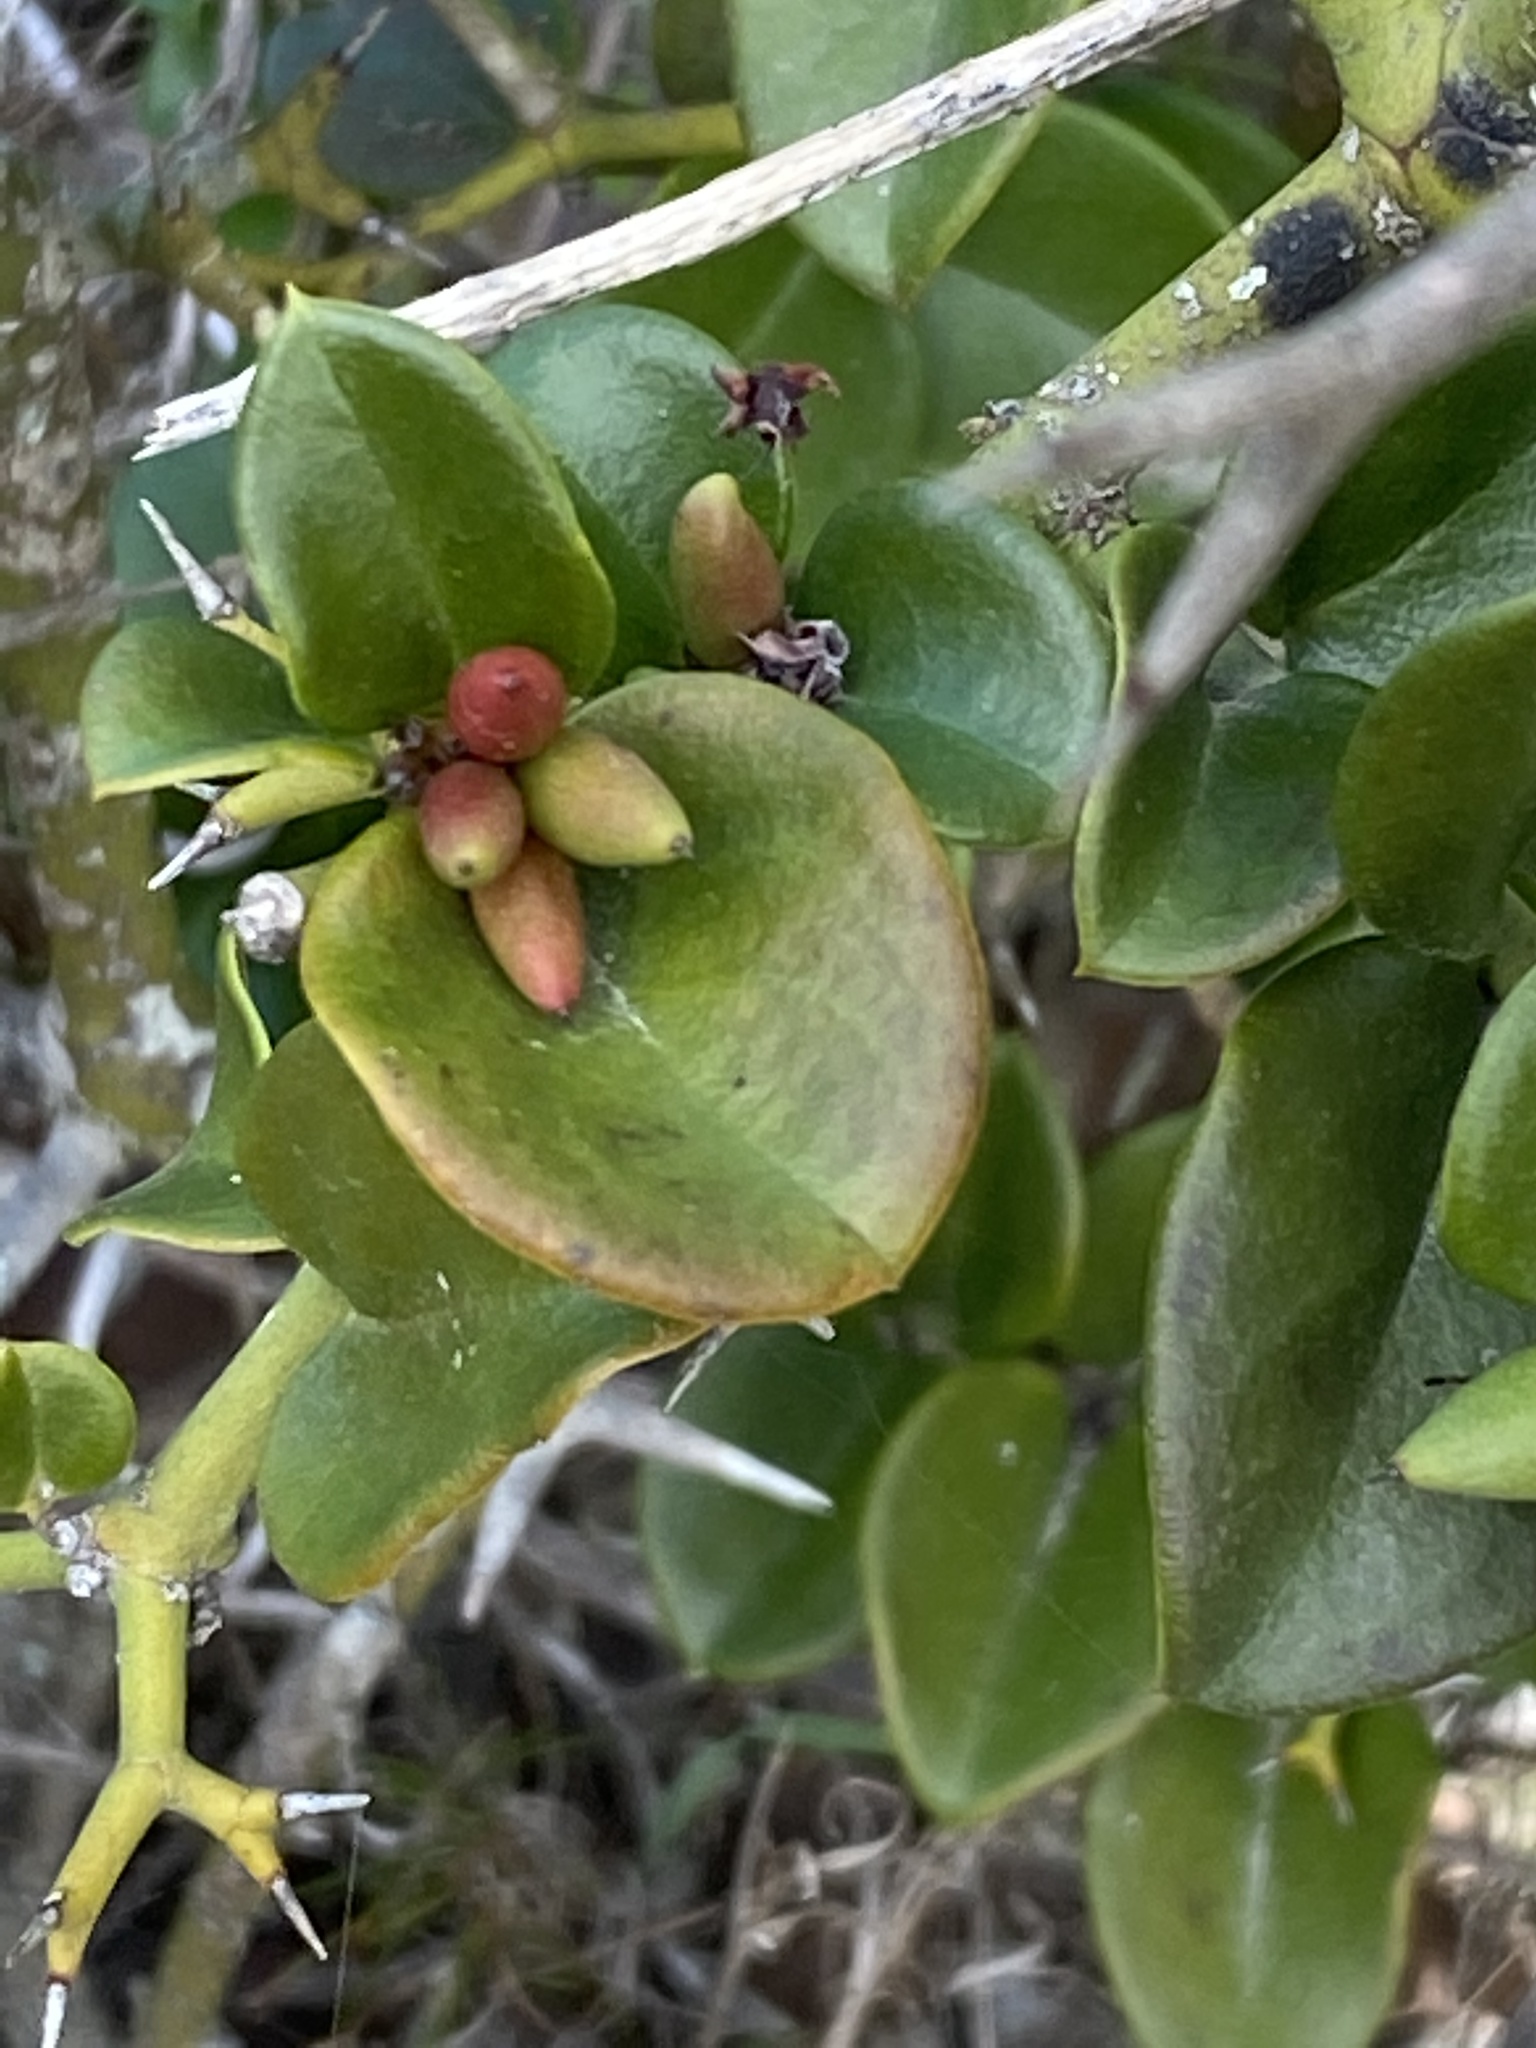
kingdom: Plantae
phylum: Tracheophyta
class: Magnoliopsida
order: Gentianales
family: Apocynaceae
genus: Carissa
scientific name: Carissa bispinosa
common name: Forest num-num
